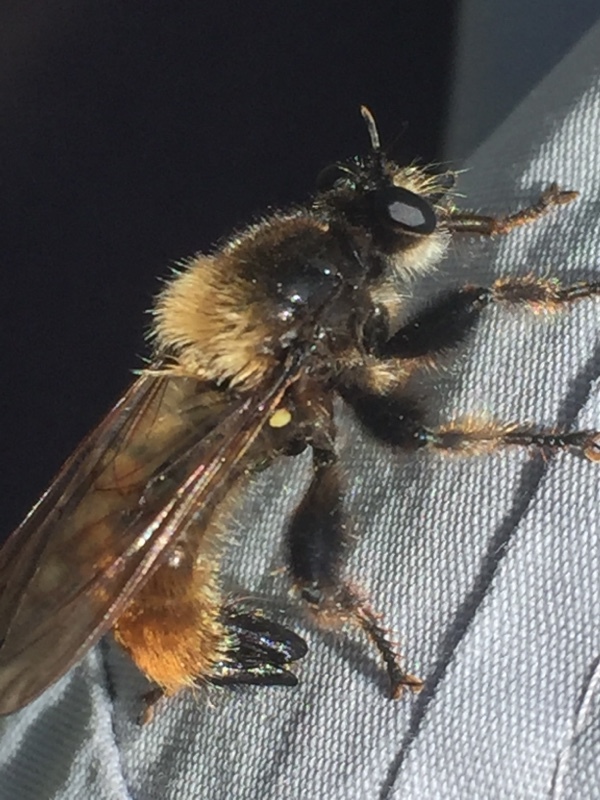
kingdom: Animalia
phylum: Arthropoda
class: Insecta
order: Diptera
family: Asilidae
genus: Laphria
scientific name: Laphria flava
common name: Bumblebee robberfly
